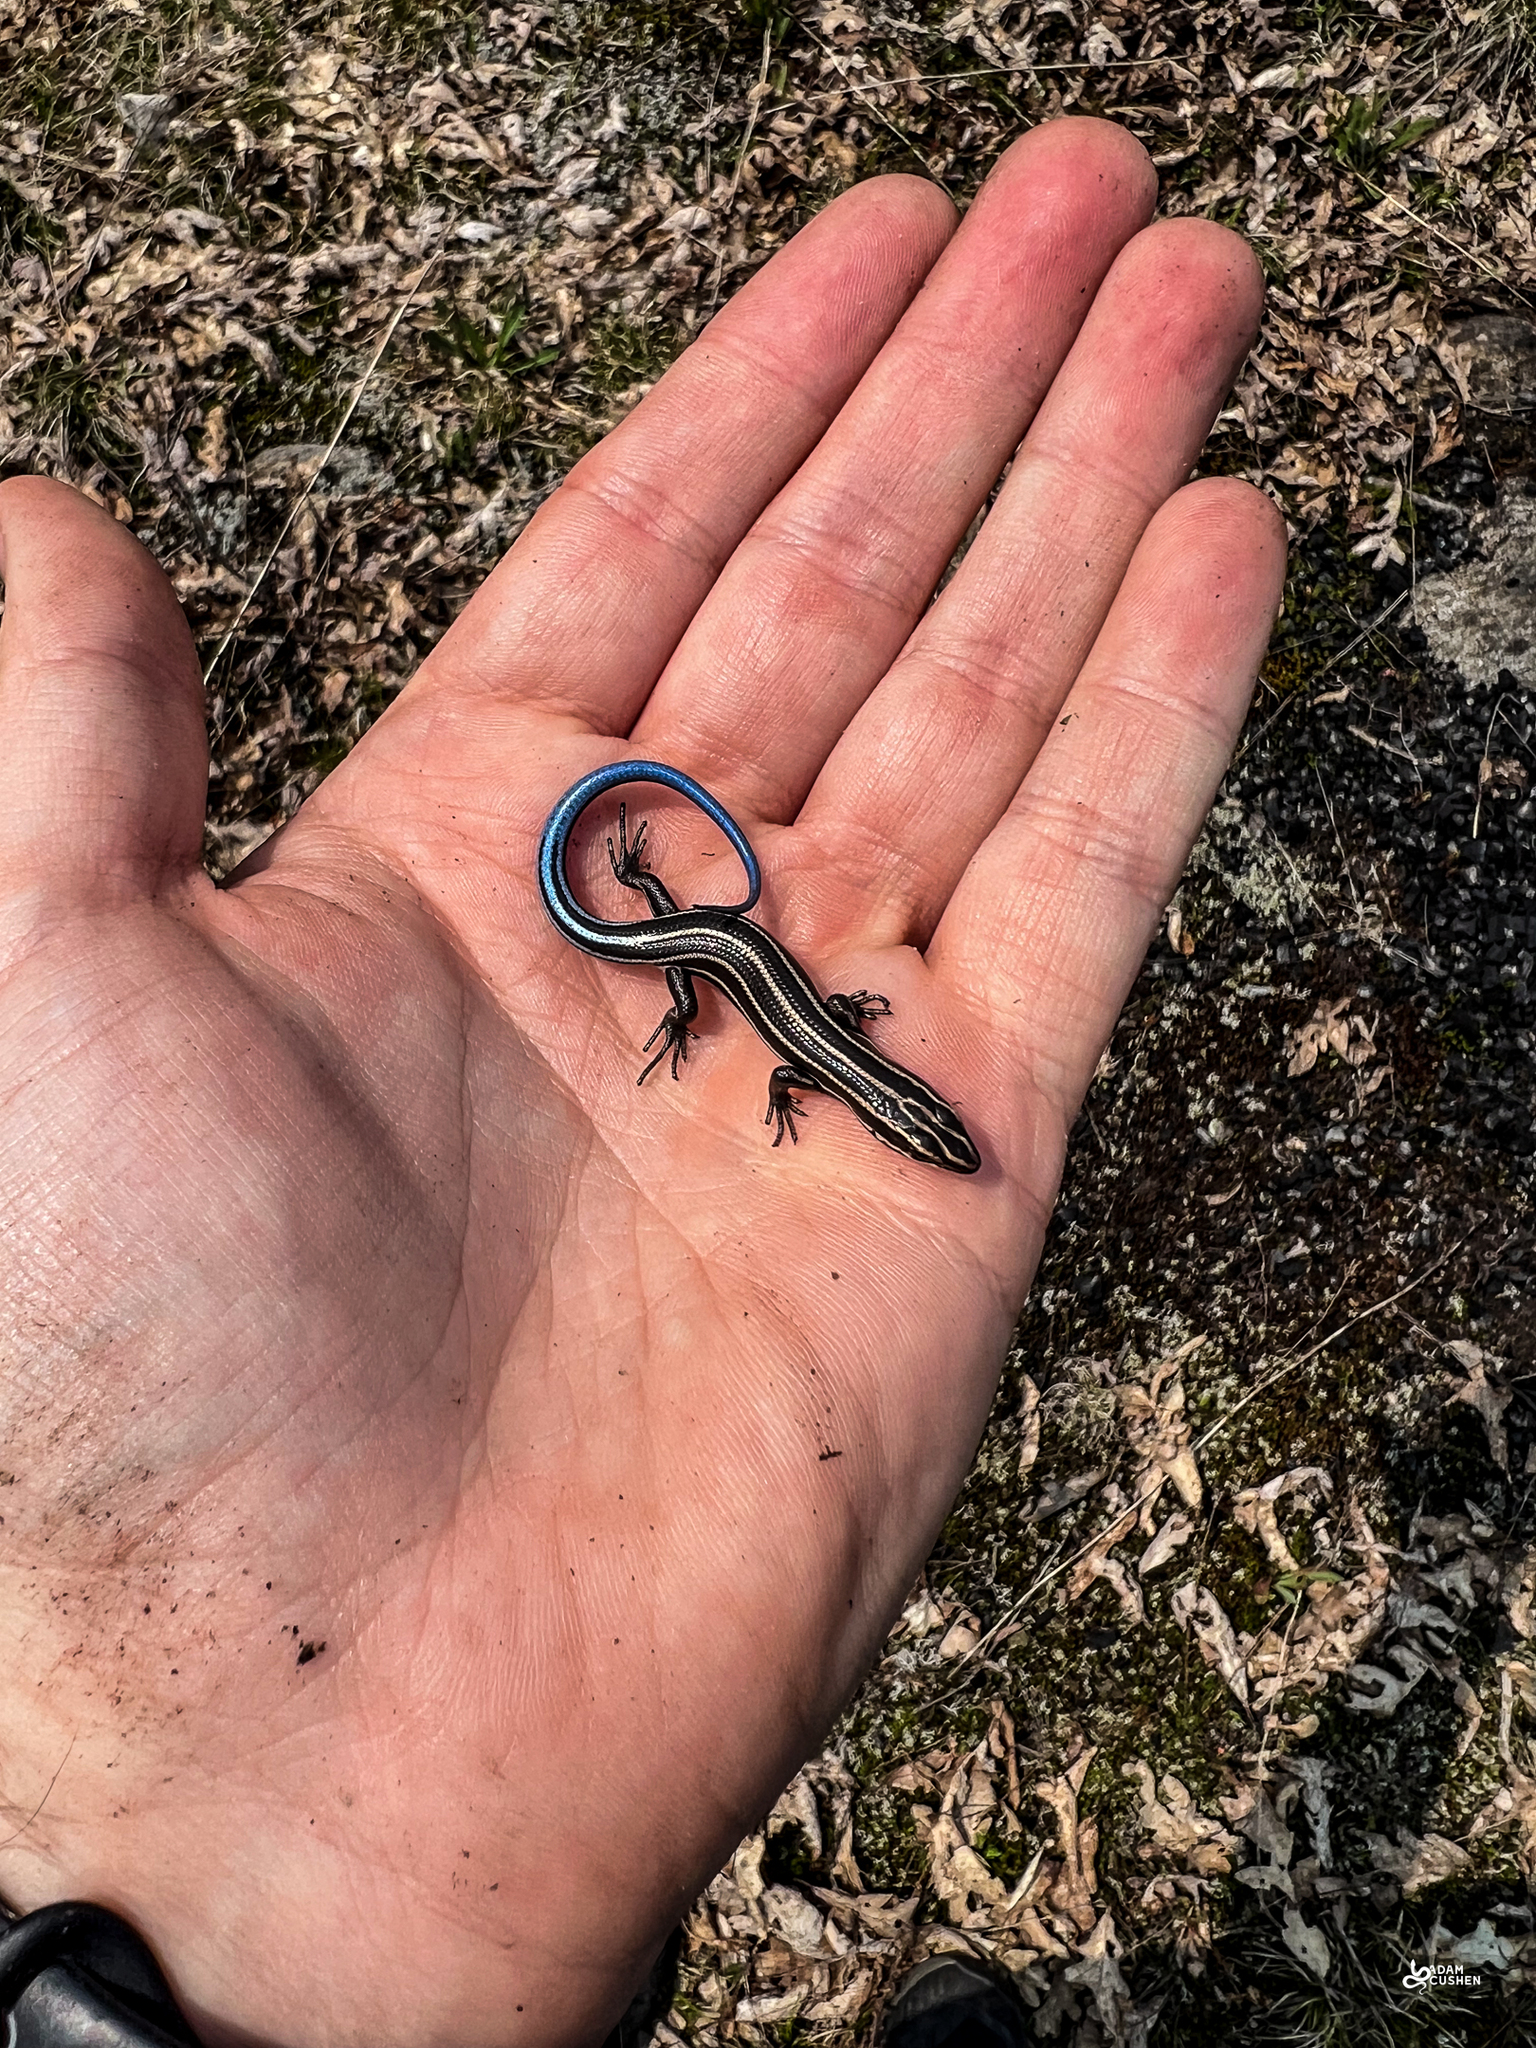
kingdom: Animalia
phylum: Chordata
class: Squamata
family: Scincidae
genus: Plestiodon
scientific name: Plestiodon fasciatus
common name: Five-lined skink
